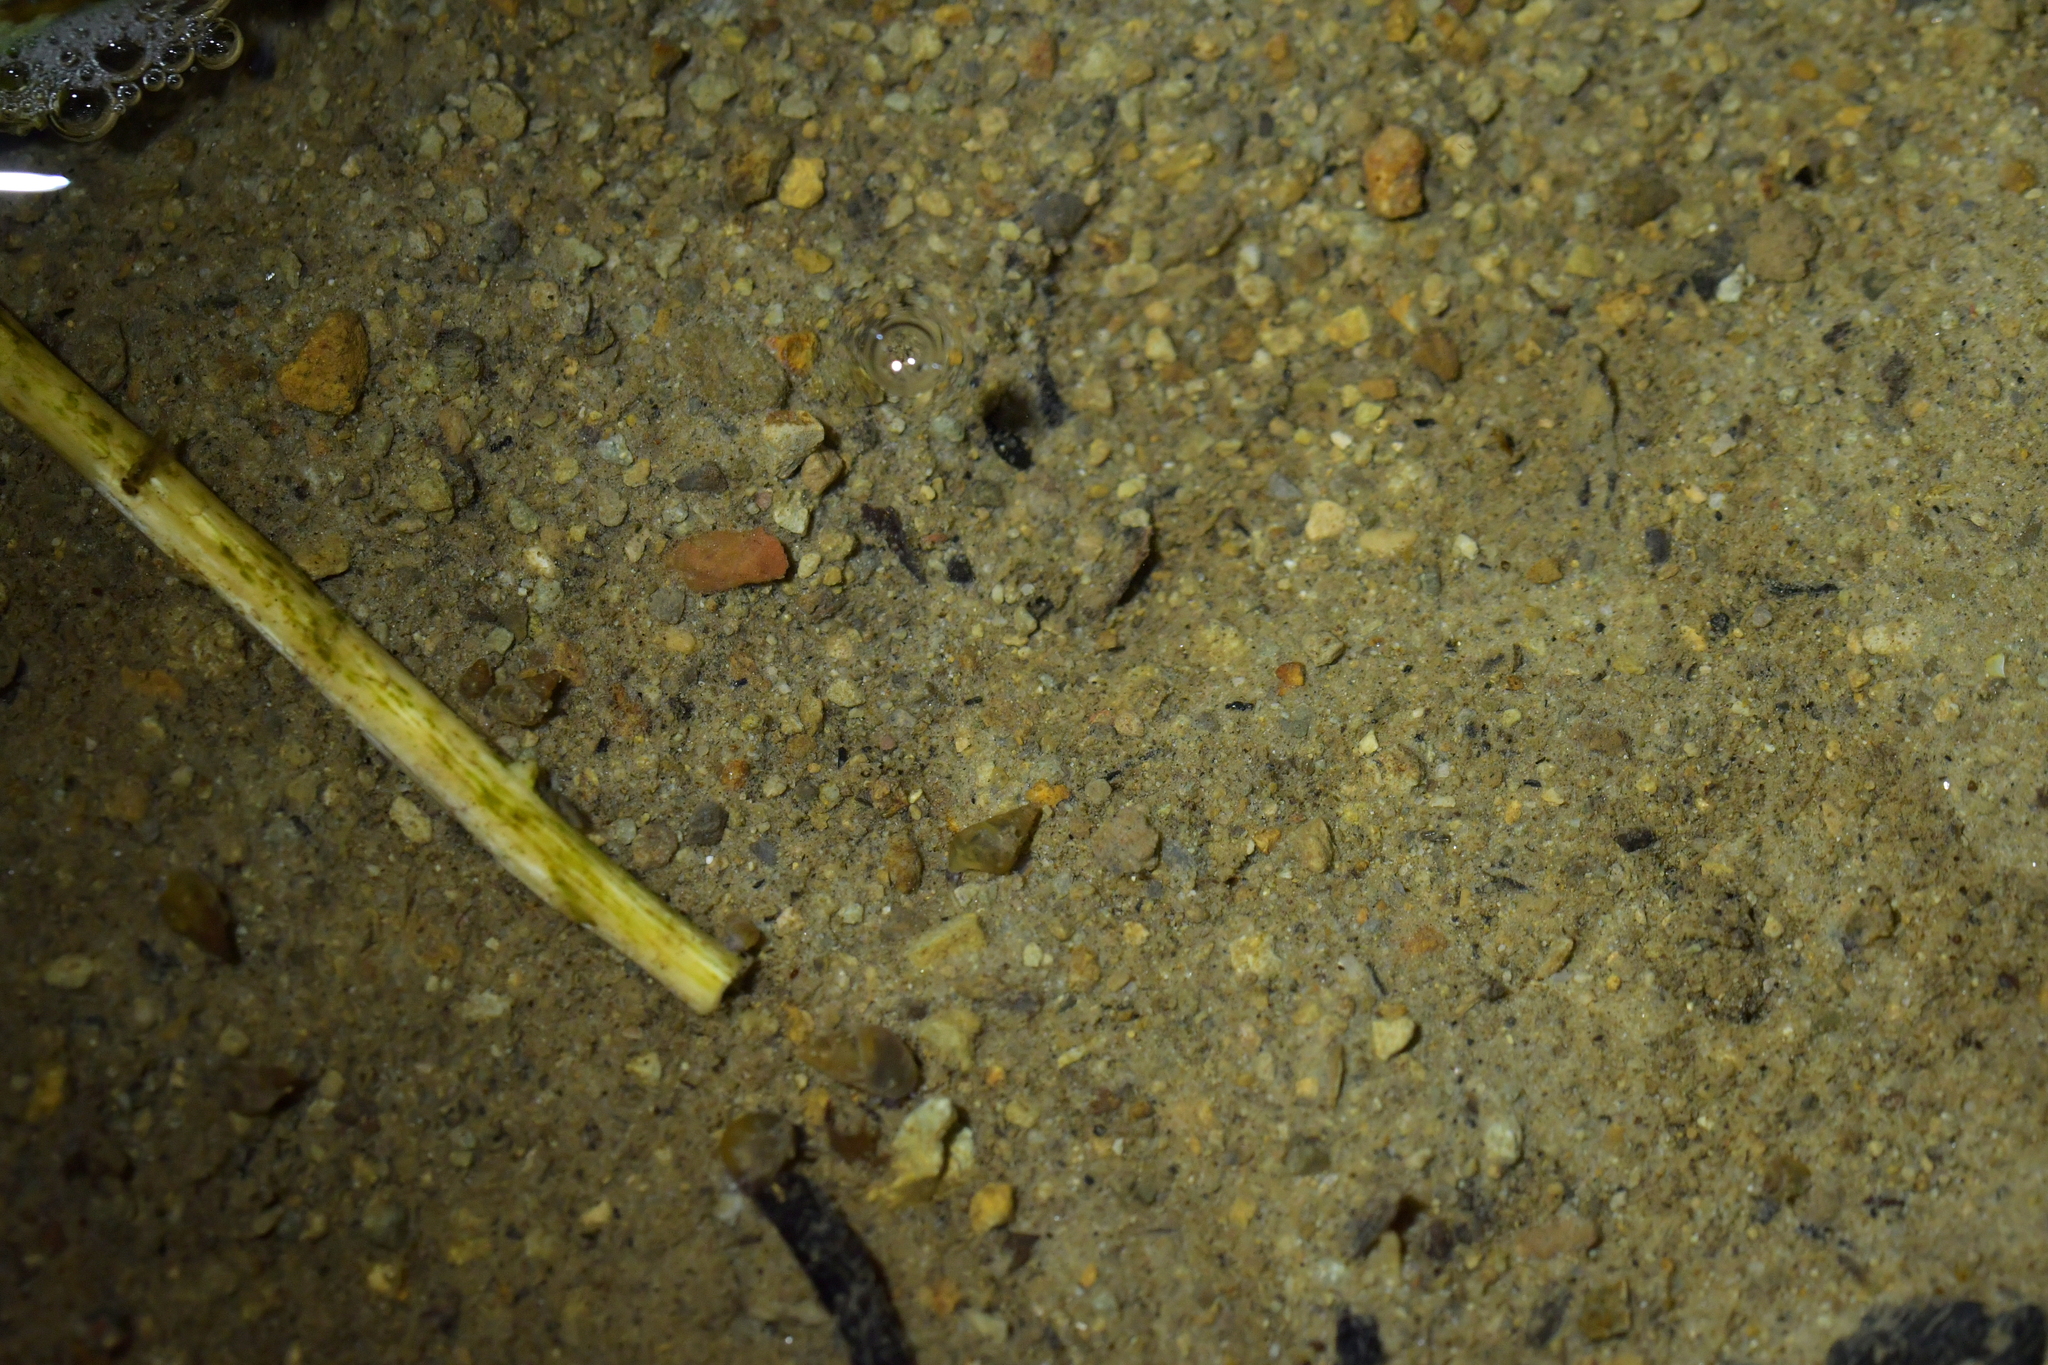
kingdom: Animalia
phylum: Mollusca
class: Gastropoda
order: Littorinimorpha
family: Tateidae
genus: Potamopyrgus
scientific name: Potamopyrgus antipodarum
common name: Jenkins' spire snail
